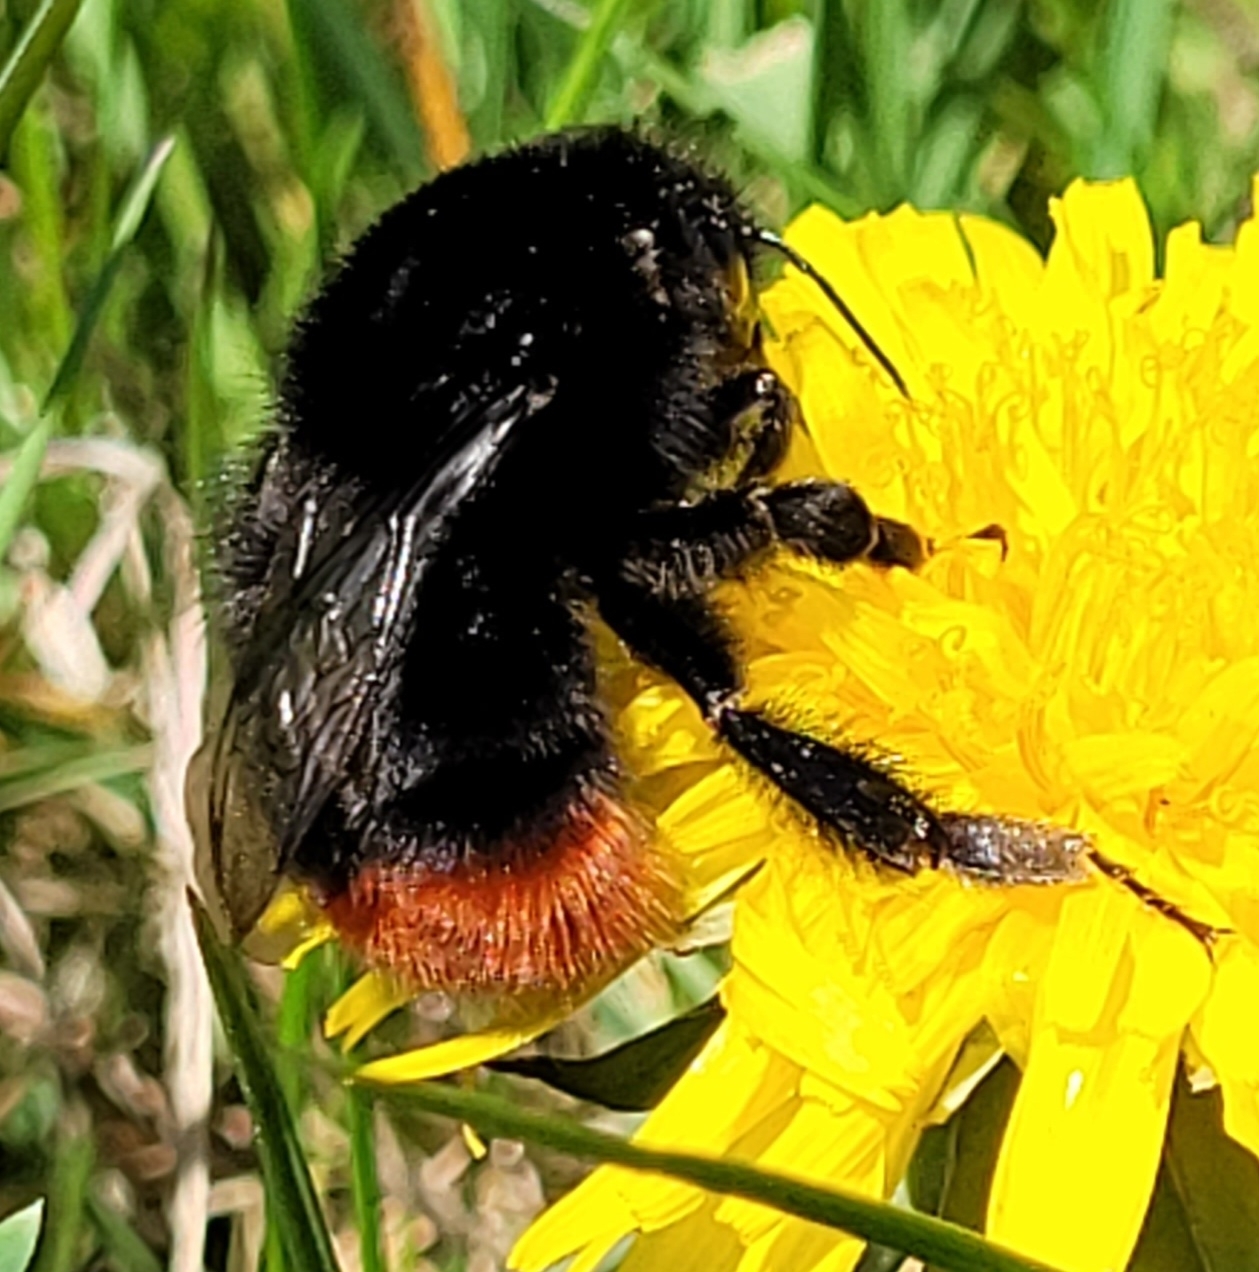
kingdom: Animalia
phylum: Arthropoda
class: Insecta
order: Hymenoptera
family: Apidae
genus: Bombus
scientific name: Bombus lapidarius
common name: Large red-tailed humble-bee
